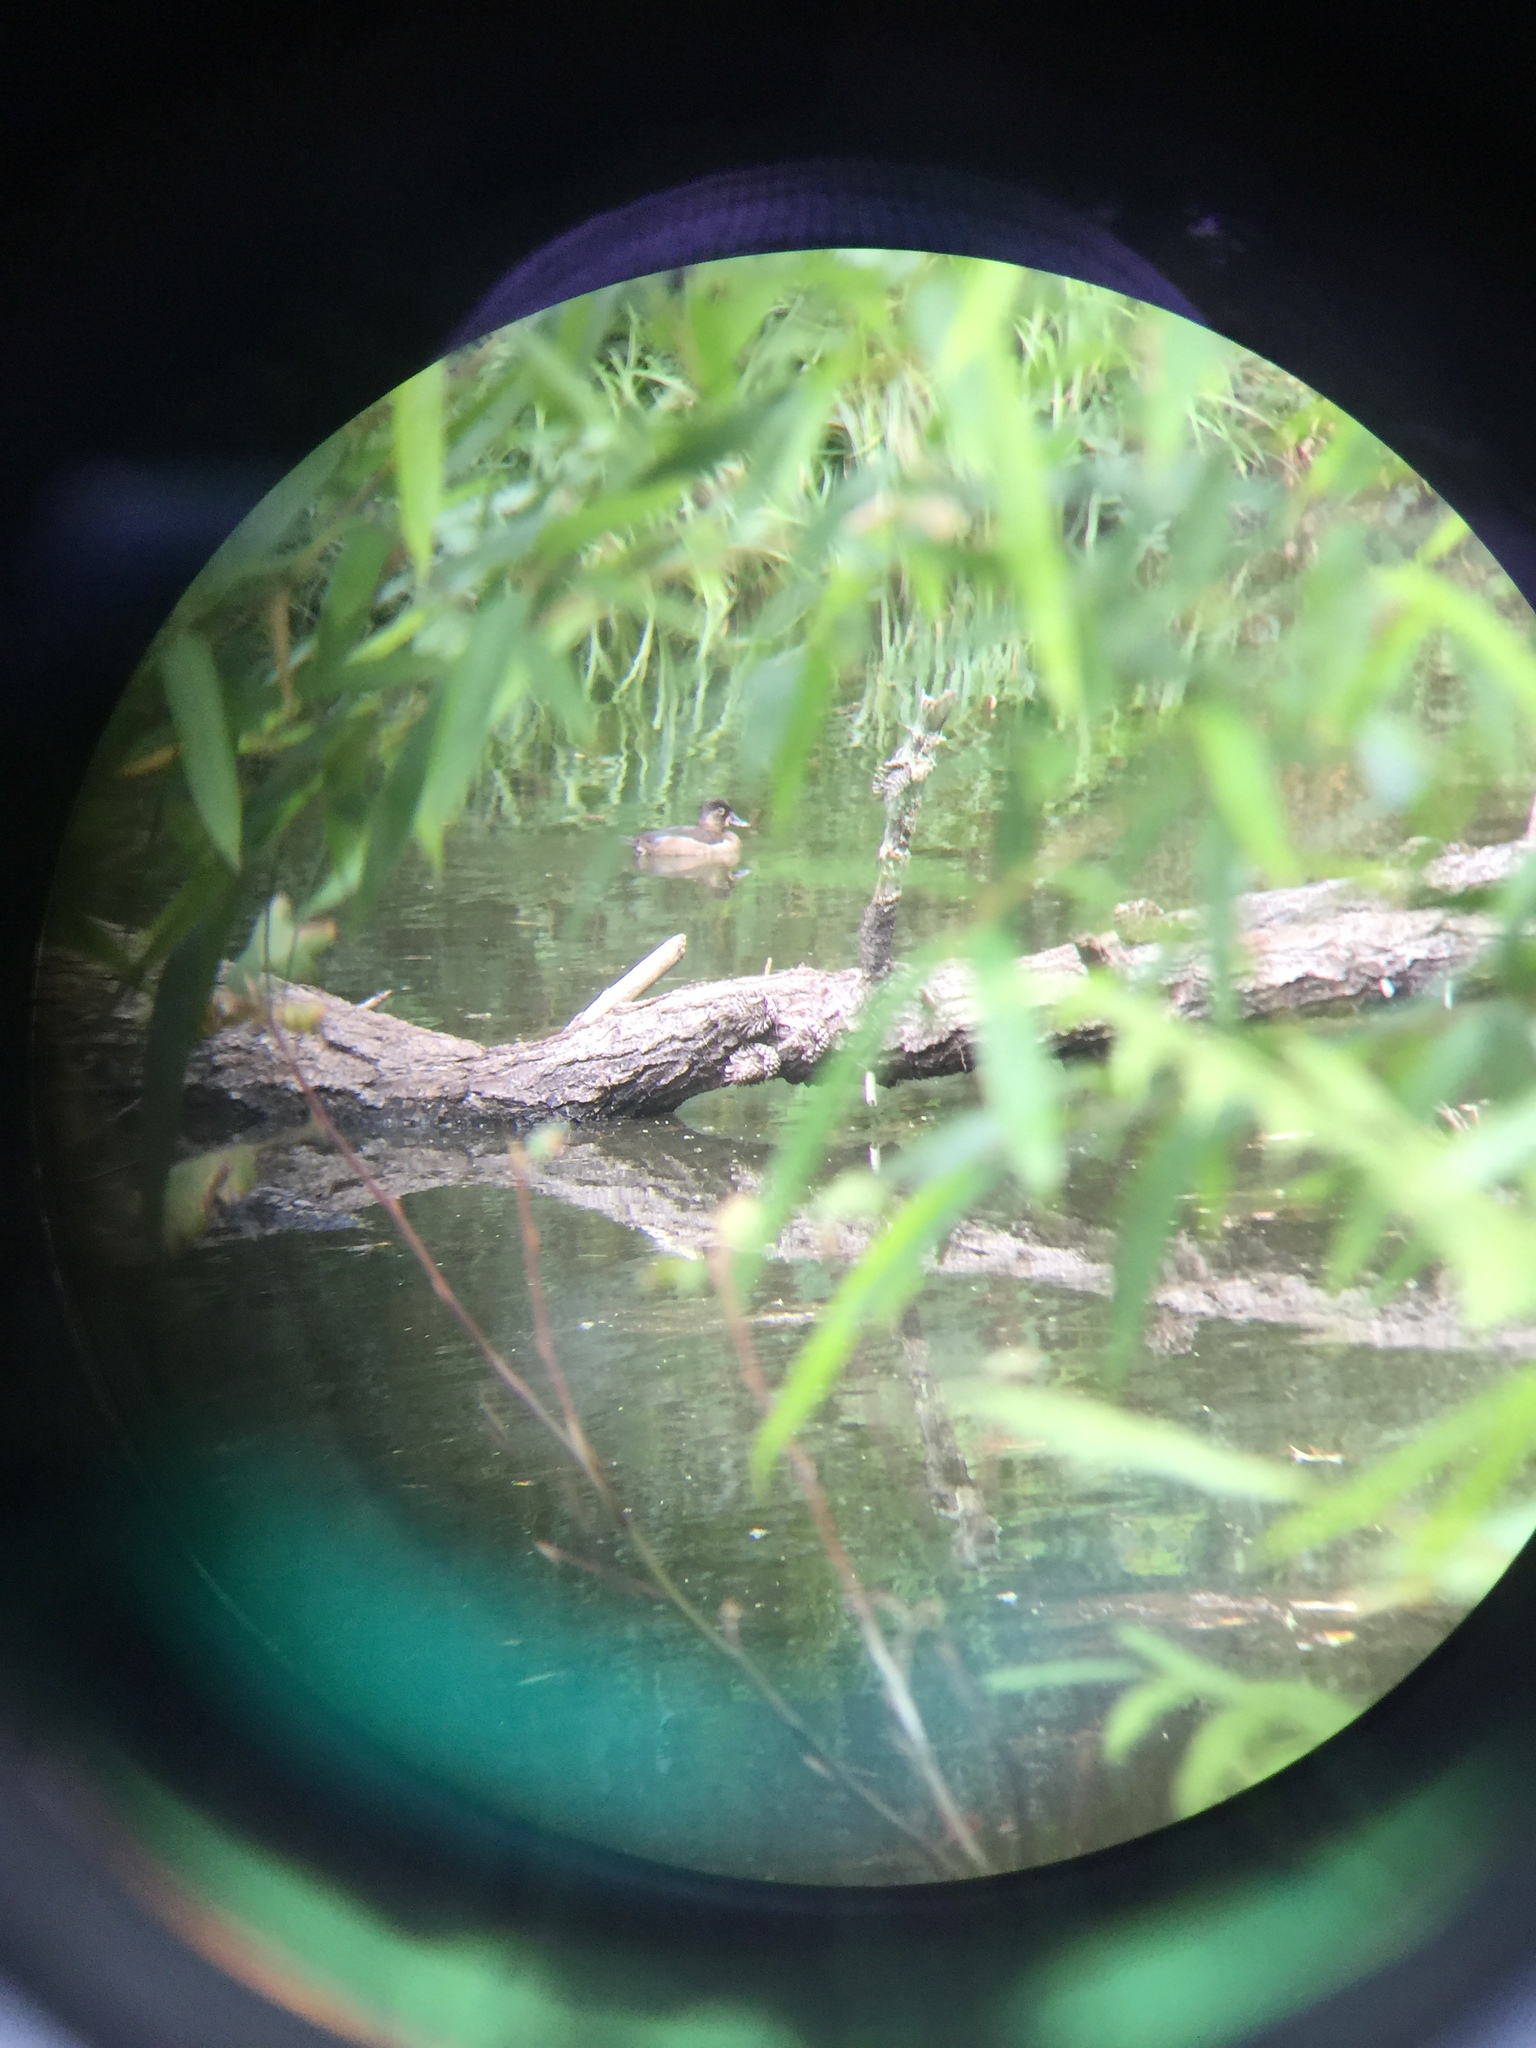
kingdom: Animalia
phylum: Chordata
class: Aves
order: Anseriformes
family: Anatidae
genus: Aythya
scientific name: Aythya collaris
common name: Ring-necked duck
